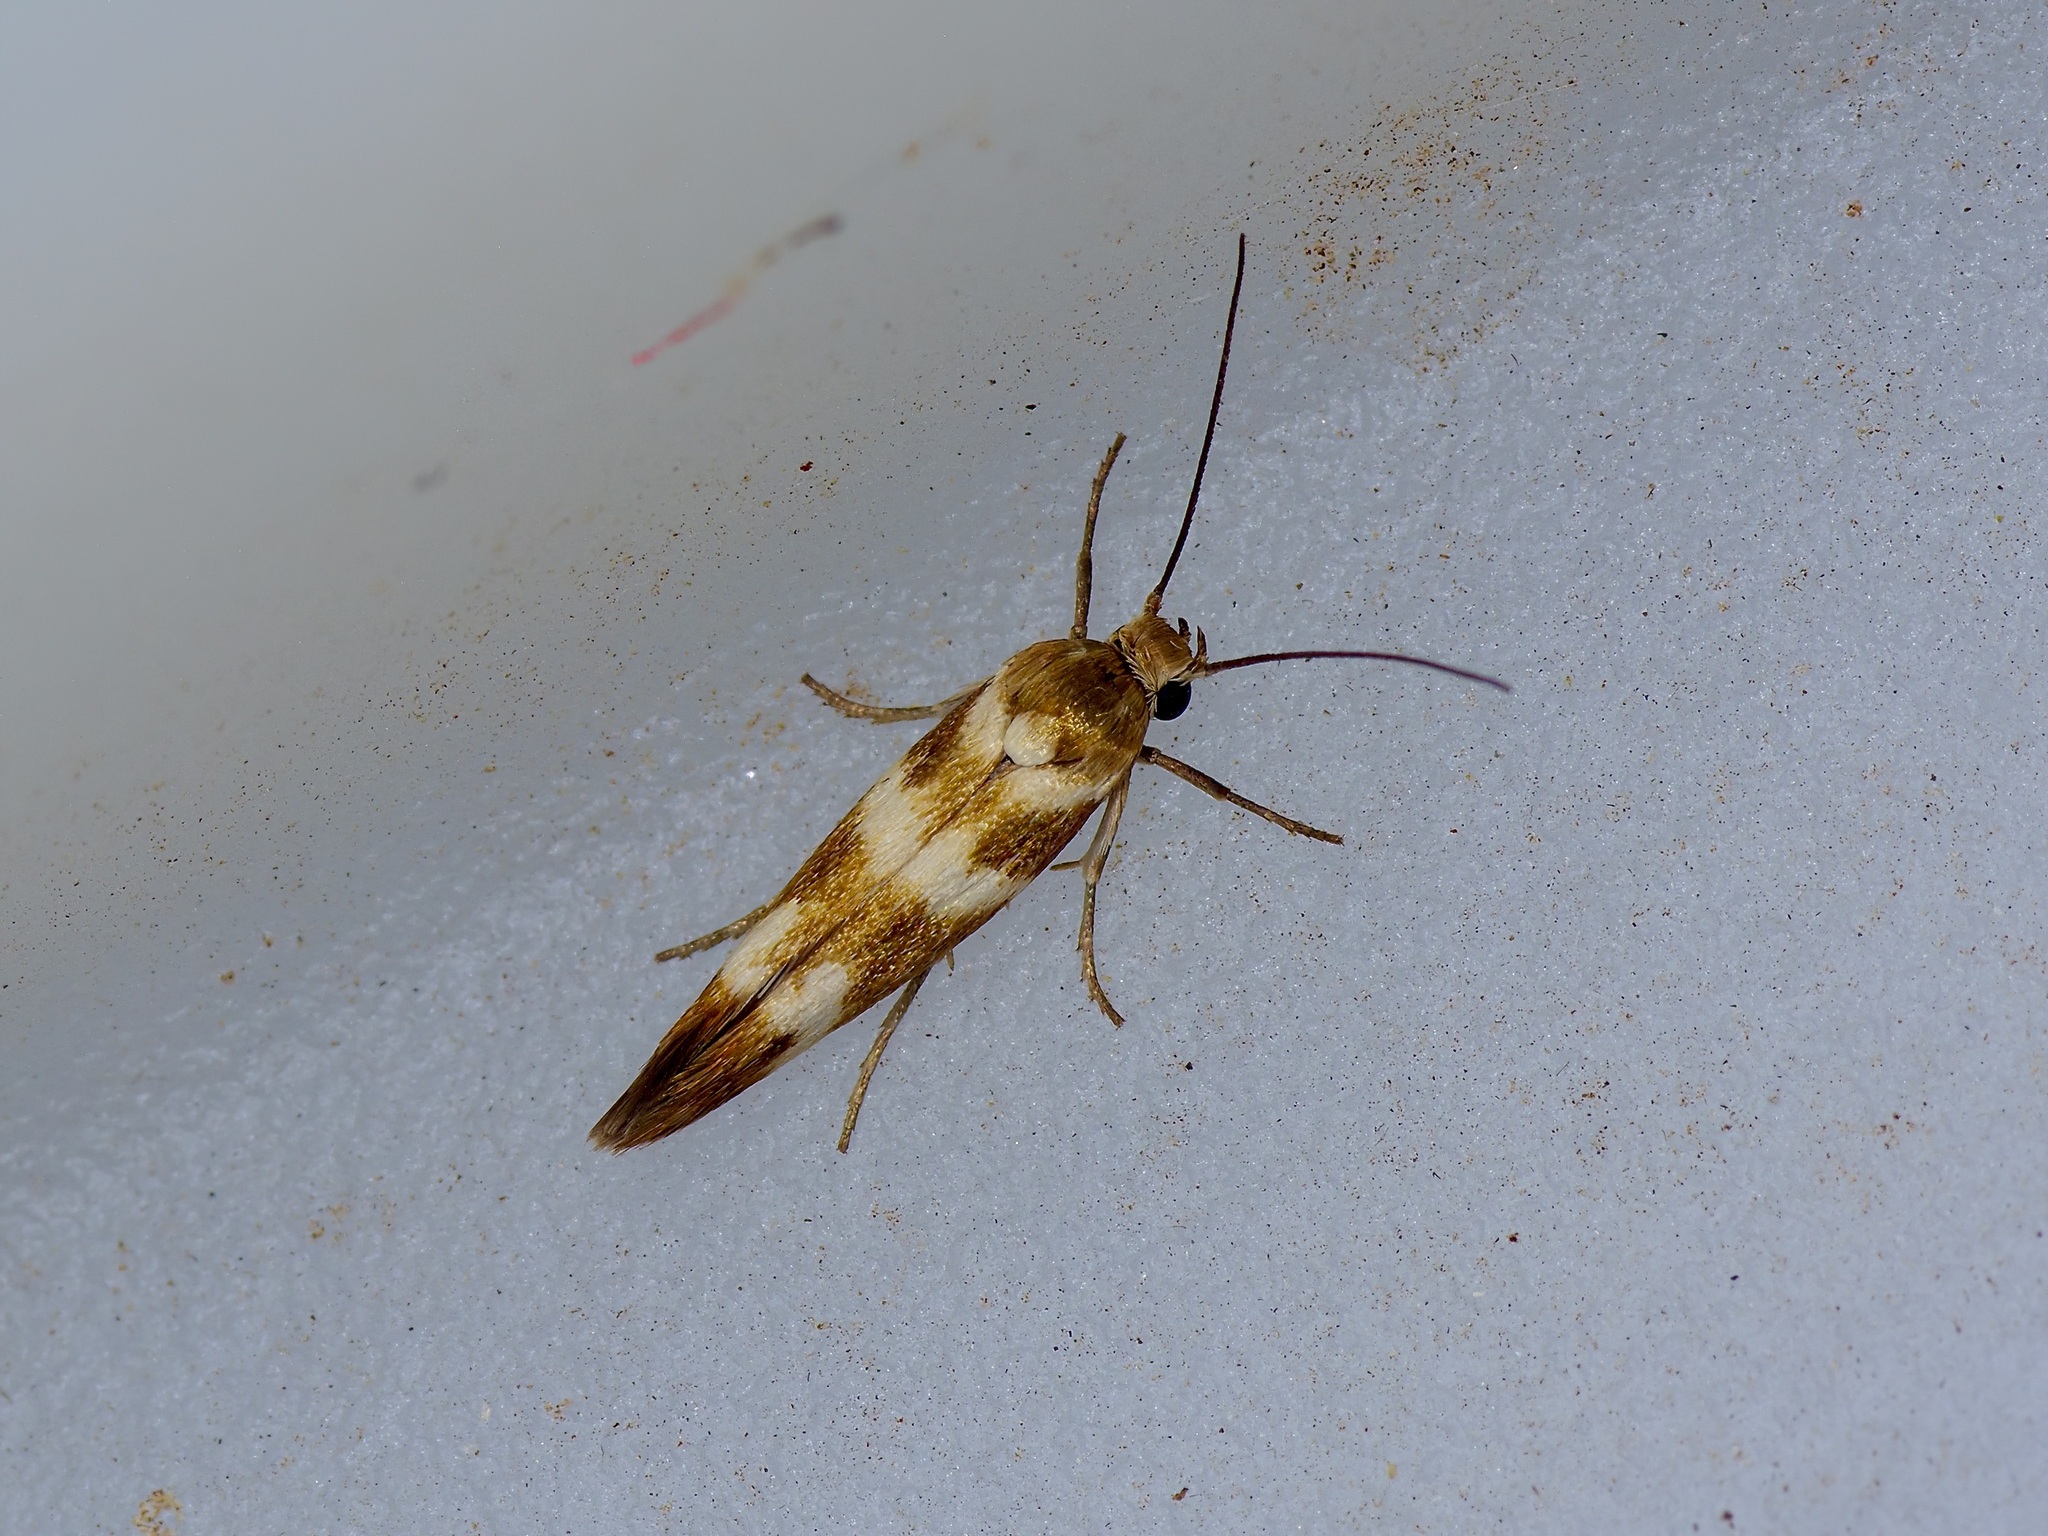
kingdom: Animalia
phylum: Arthropoda
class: Insecta
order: Lepidoptera
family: Scythrididae
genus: Scythris
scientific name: Scythris trivinctella
